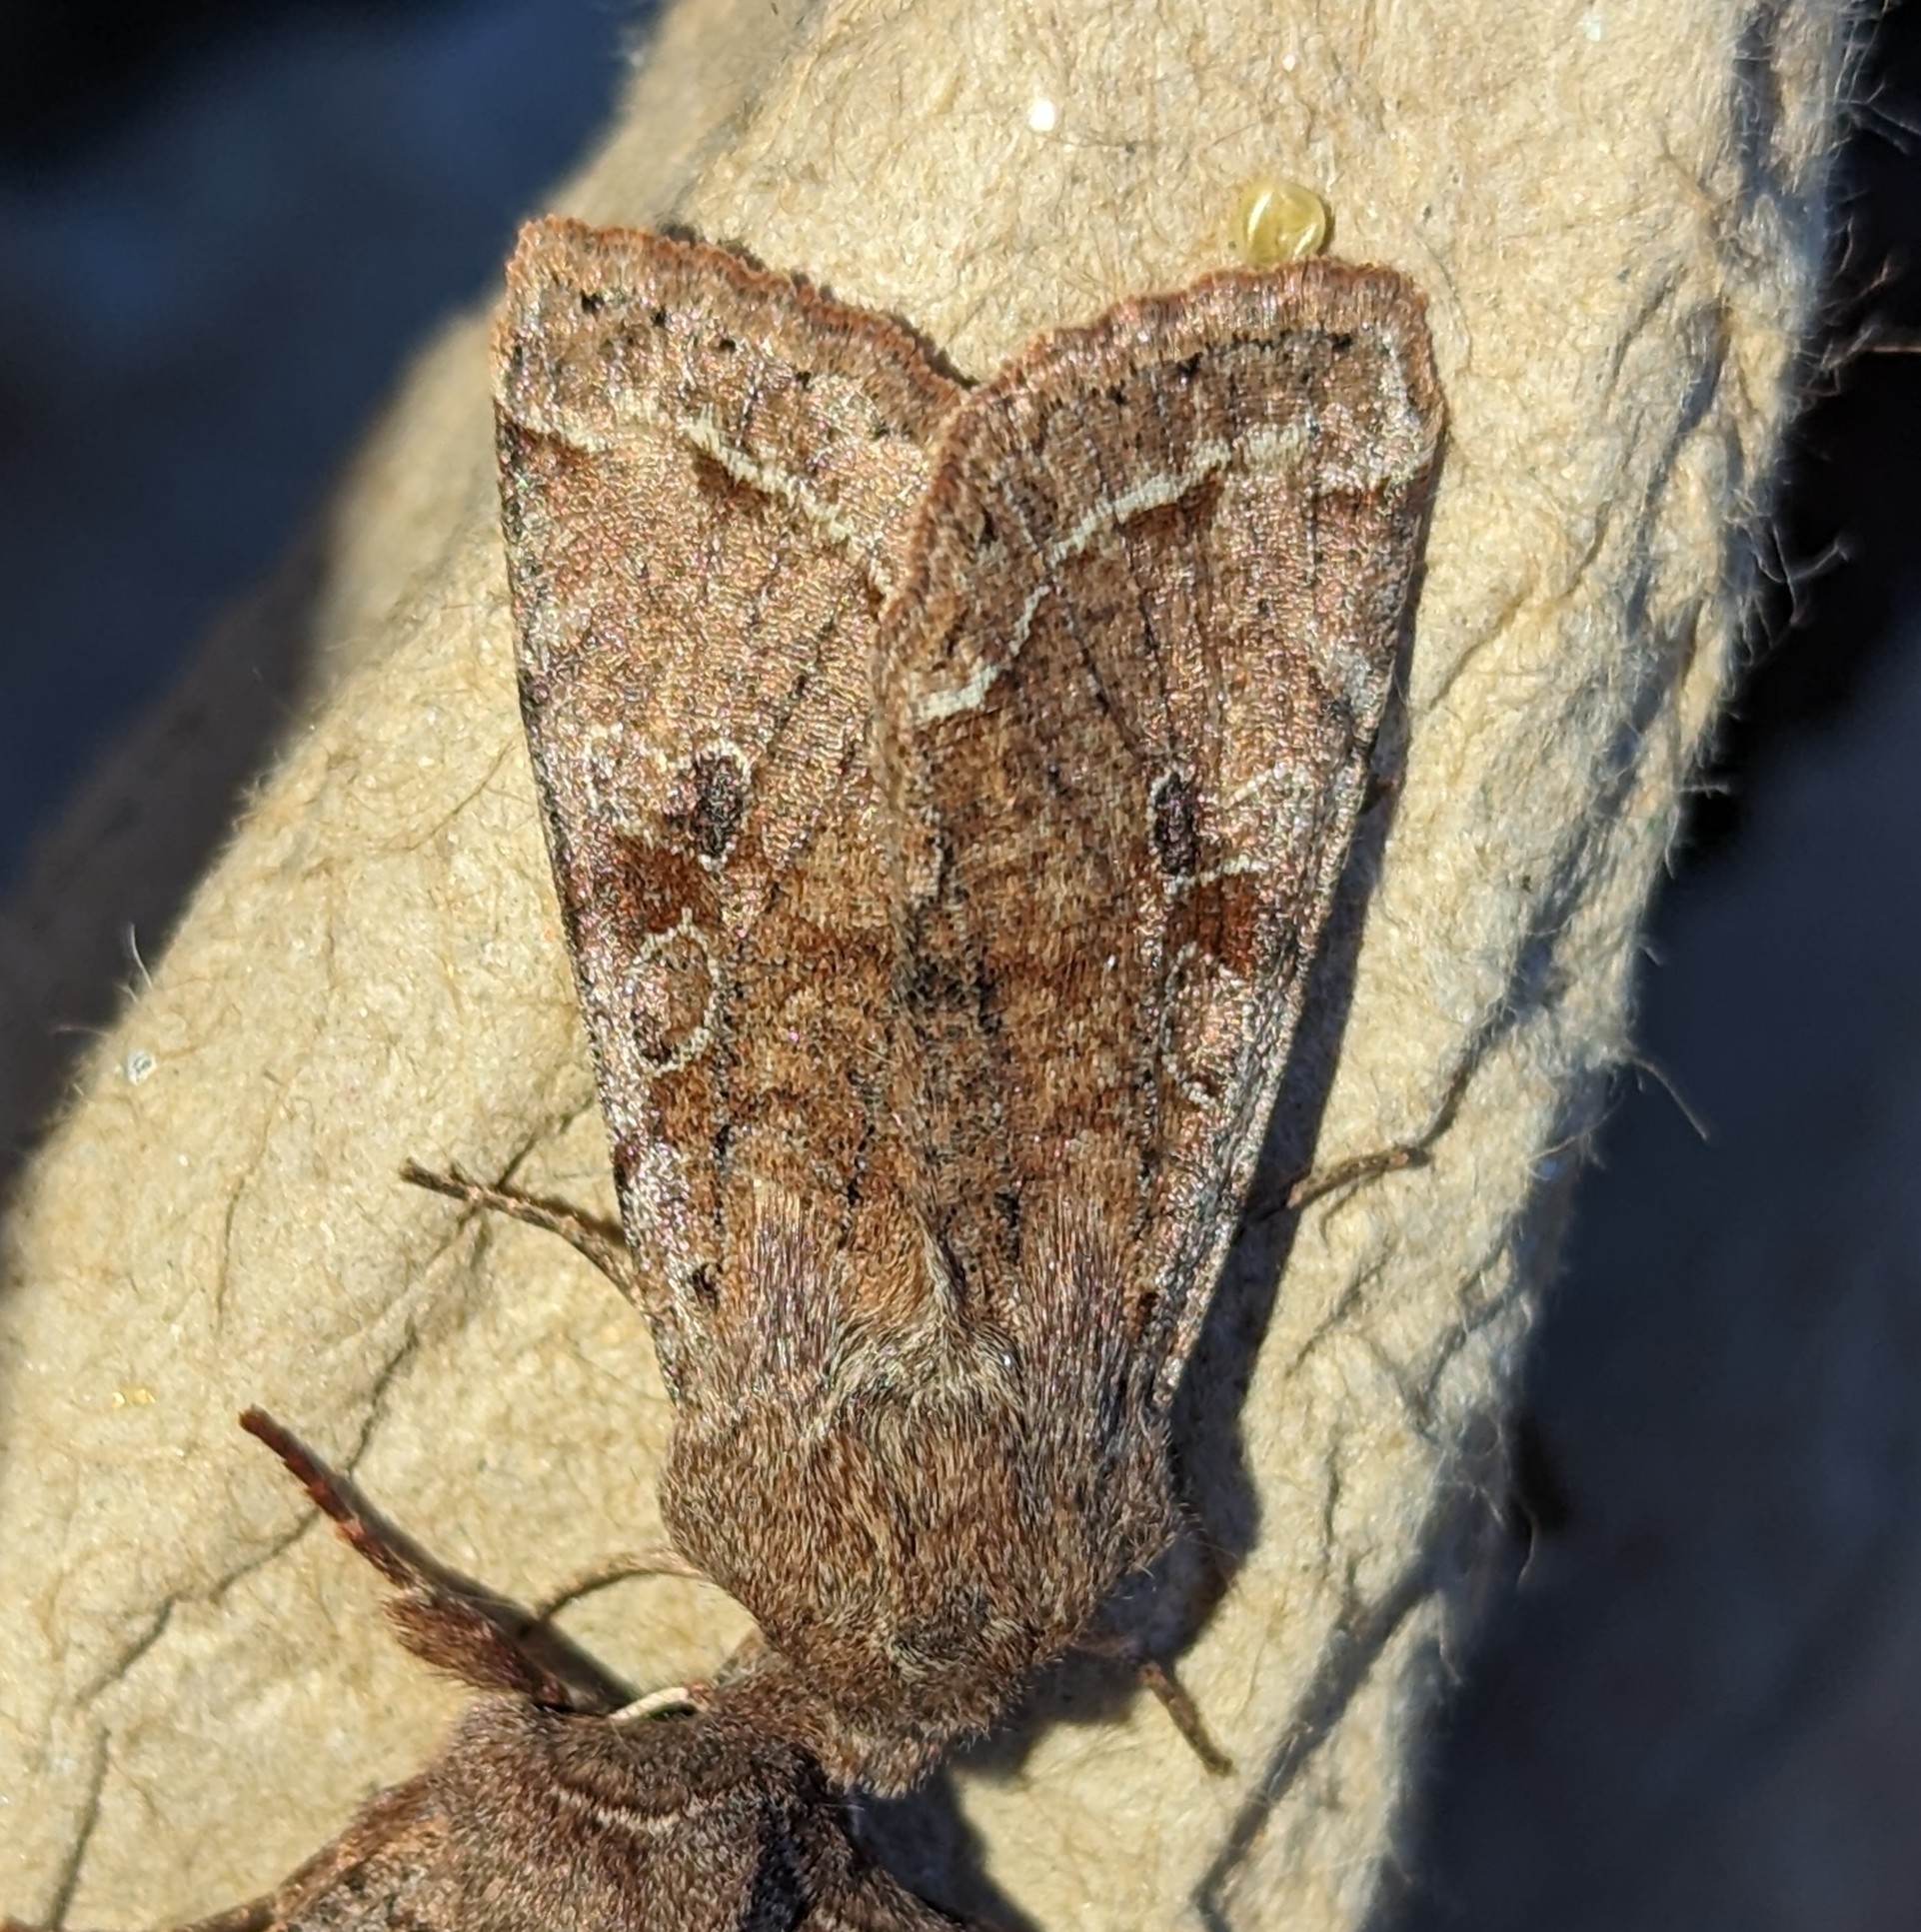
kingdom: Animalia
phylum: Arthropoda
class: Insecta
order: Lepidoptera
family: Noctuidae
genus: Orthosia
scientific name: Orthosia hibisci
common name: Green fruitworm
